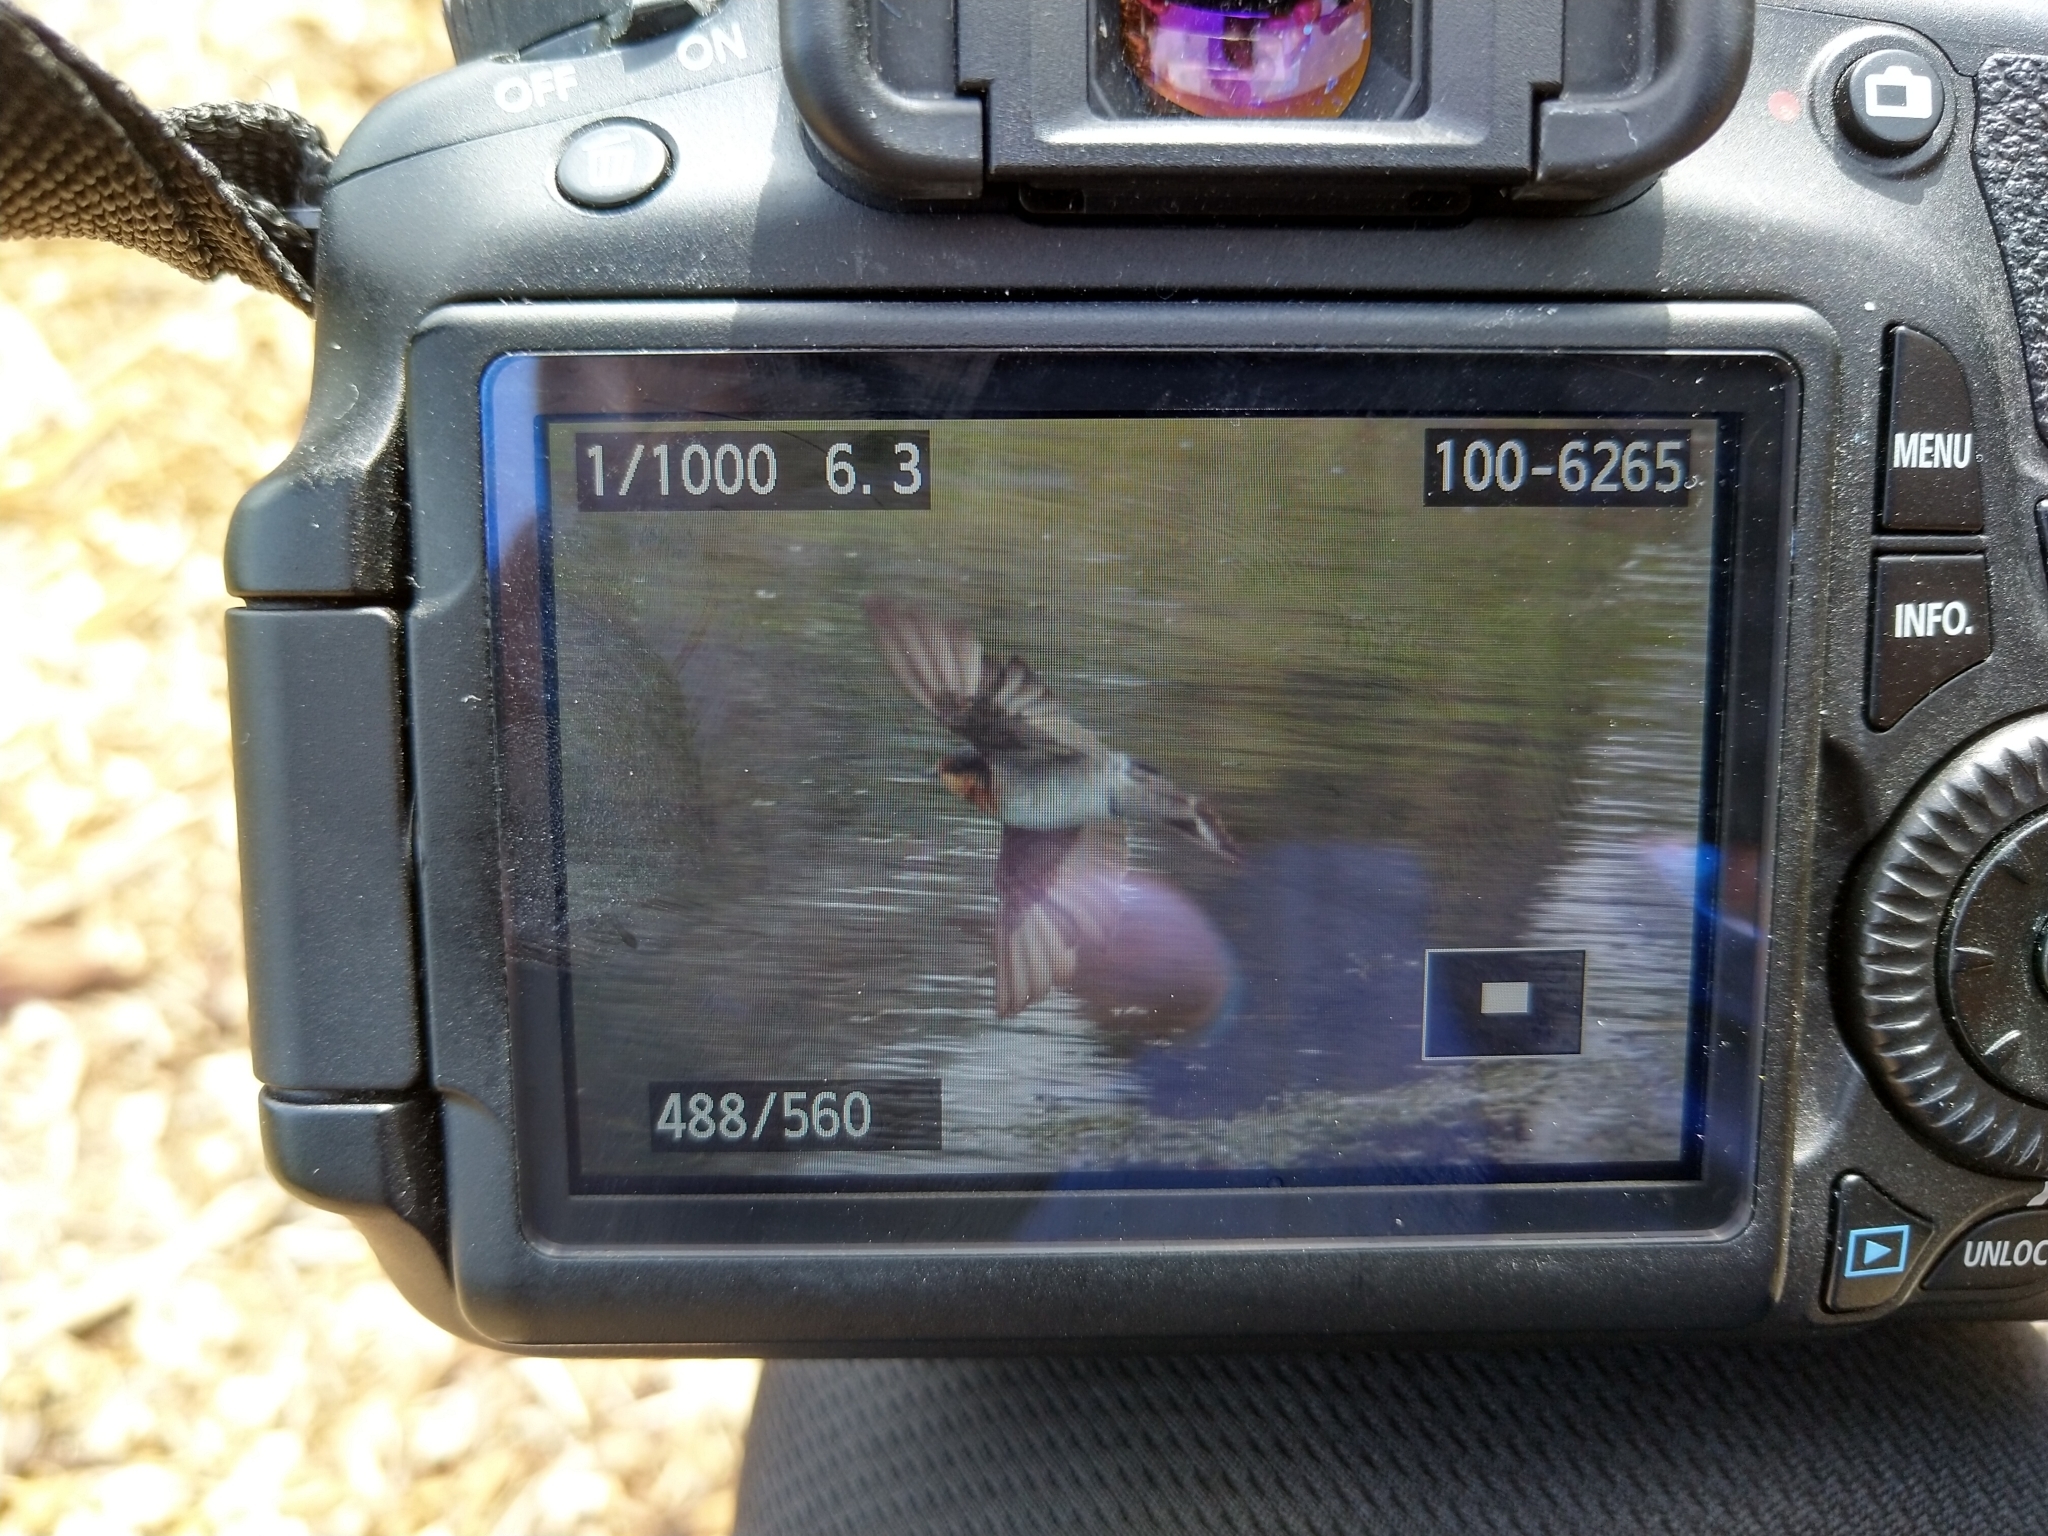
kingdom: Animalia
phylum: Chordata
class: Aves
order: Passeriformes
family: Hirundinidae
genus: Hirundo
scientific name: Hirundo neoxena
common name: Welcome swallow
